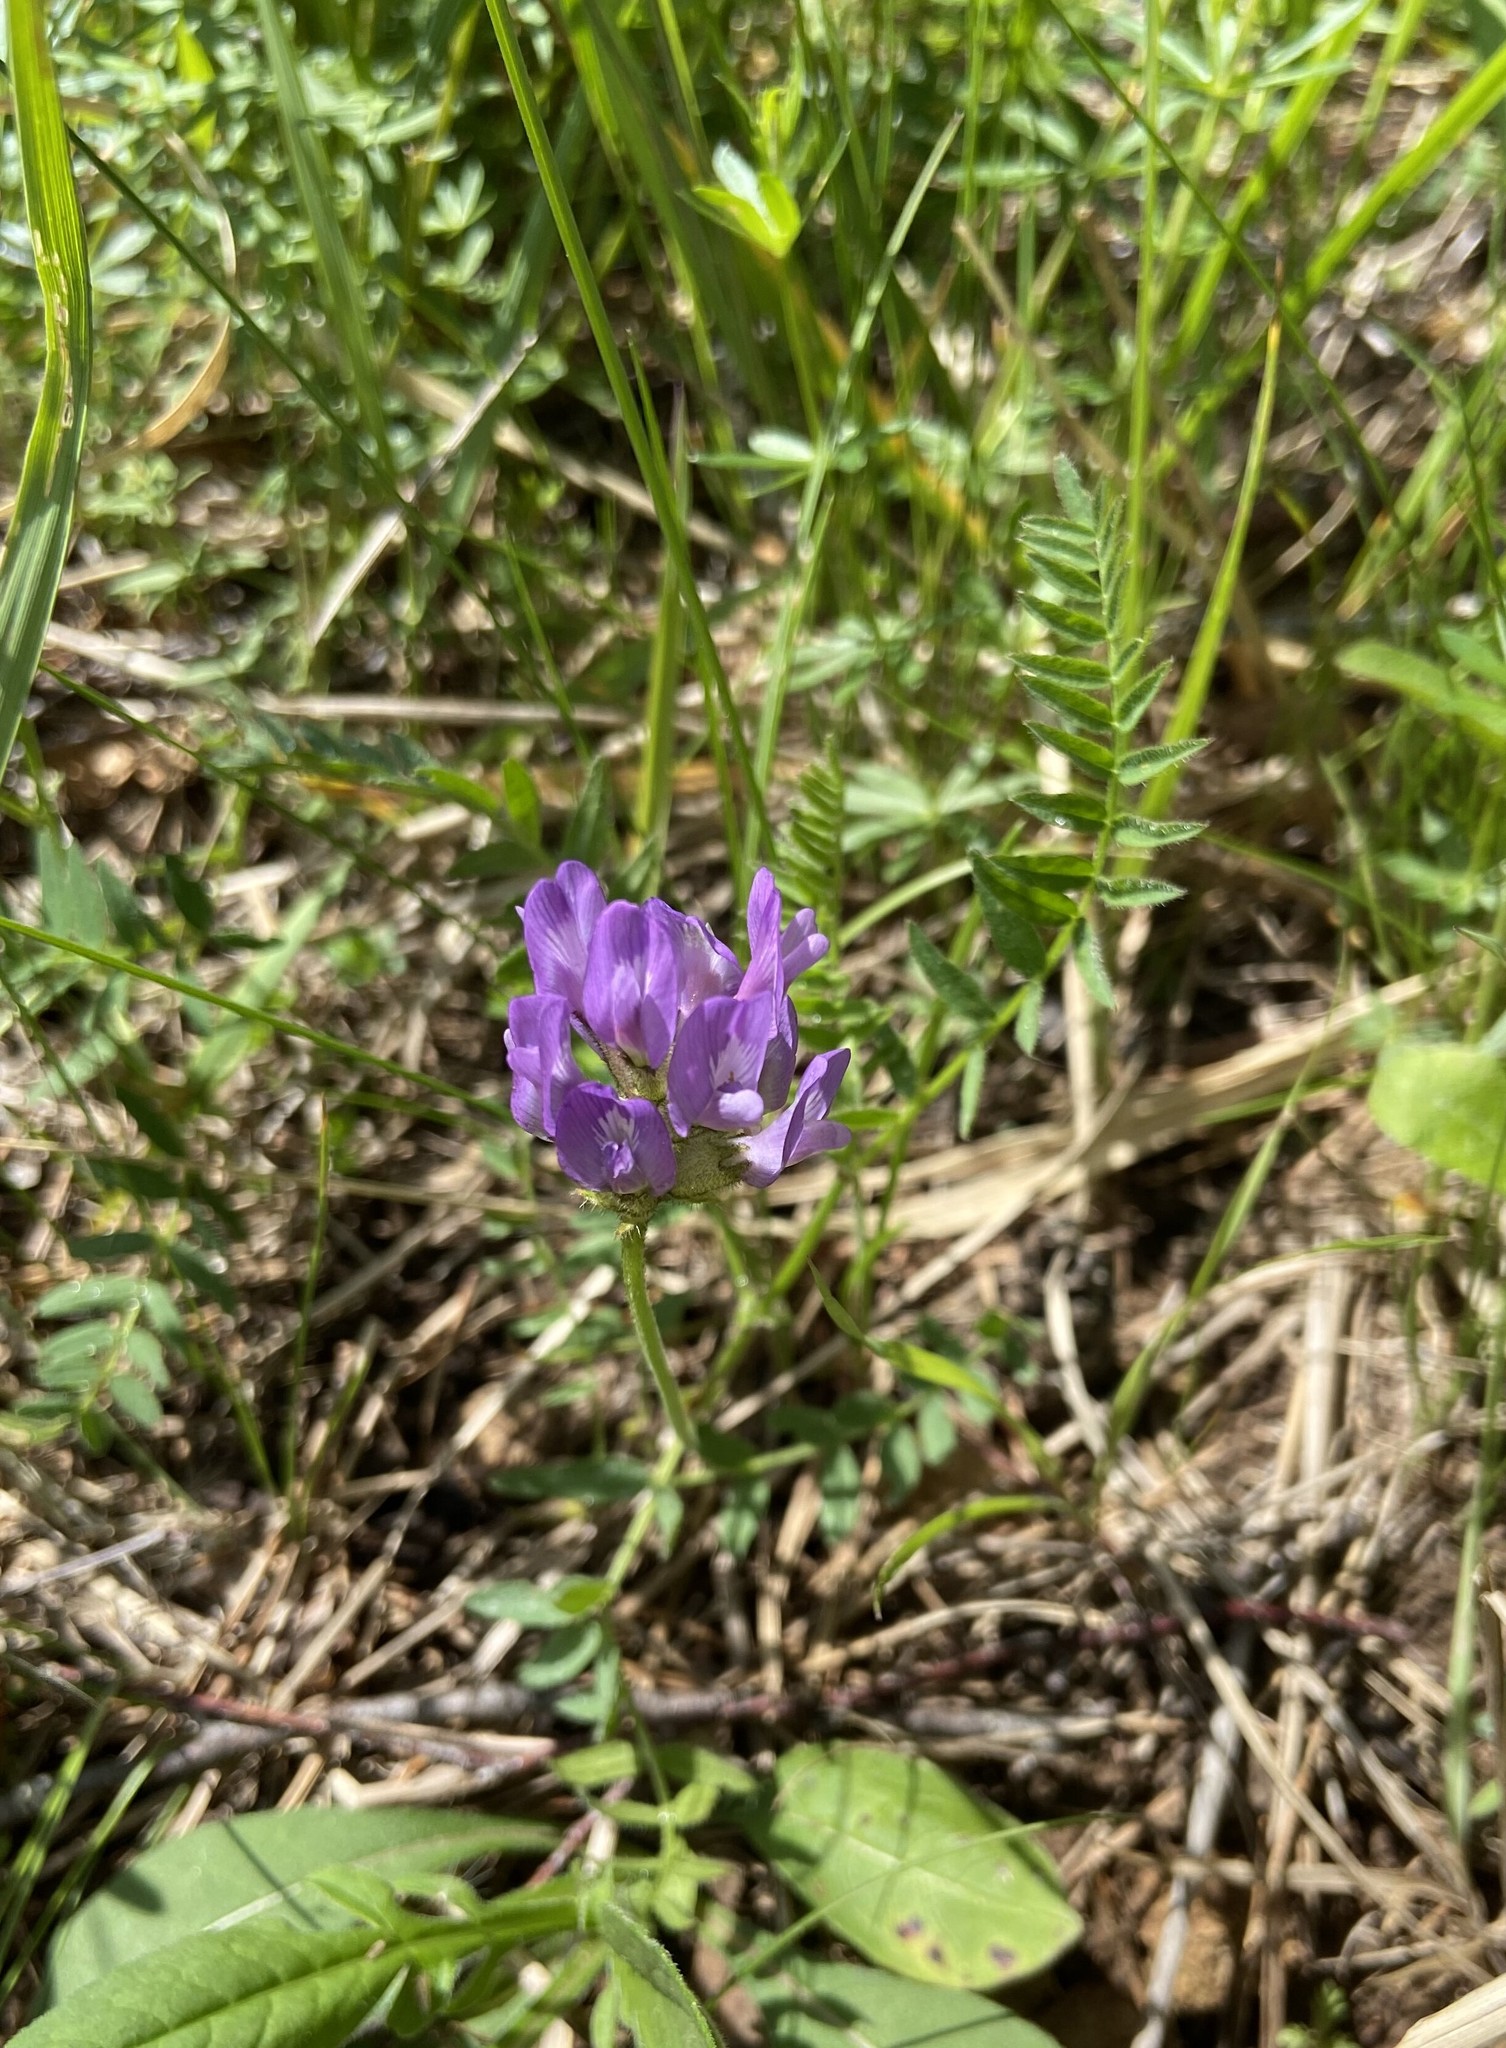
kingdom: Plantae
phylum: Tracheophyta
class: Magnoliopsida
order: Fabales
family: Fabaceae
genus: Astragalus
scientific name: Astragalus danicus
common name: Purple milk-vetch
